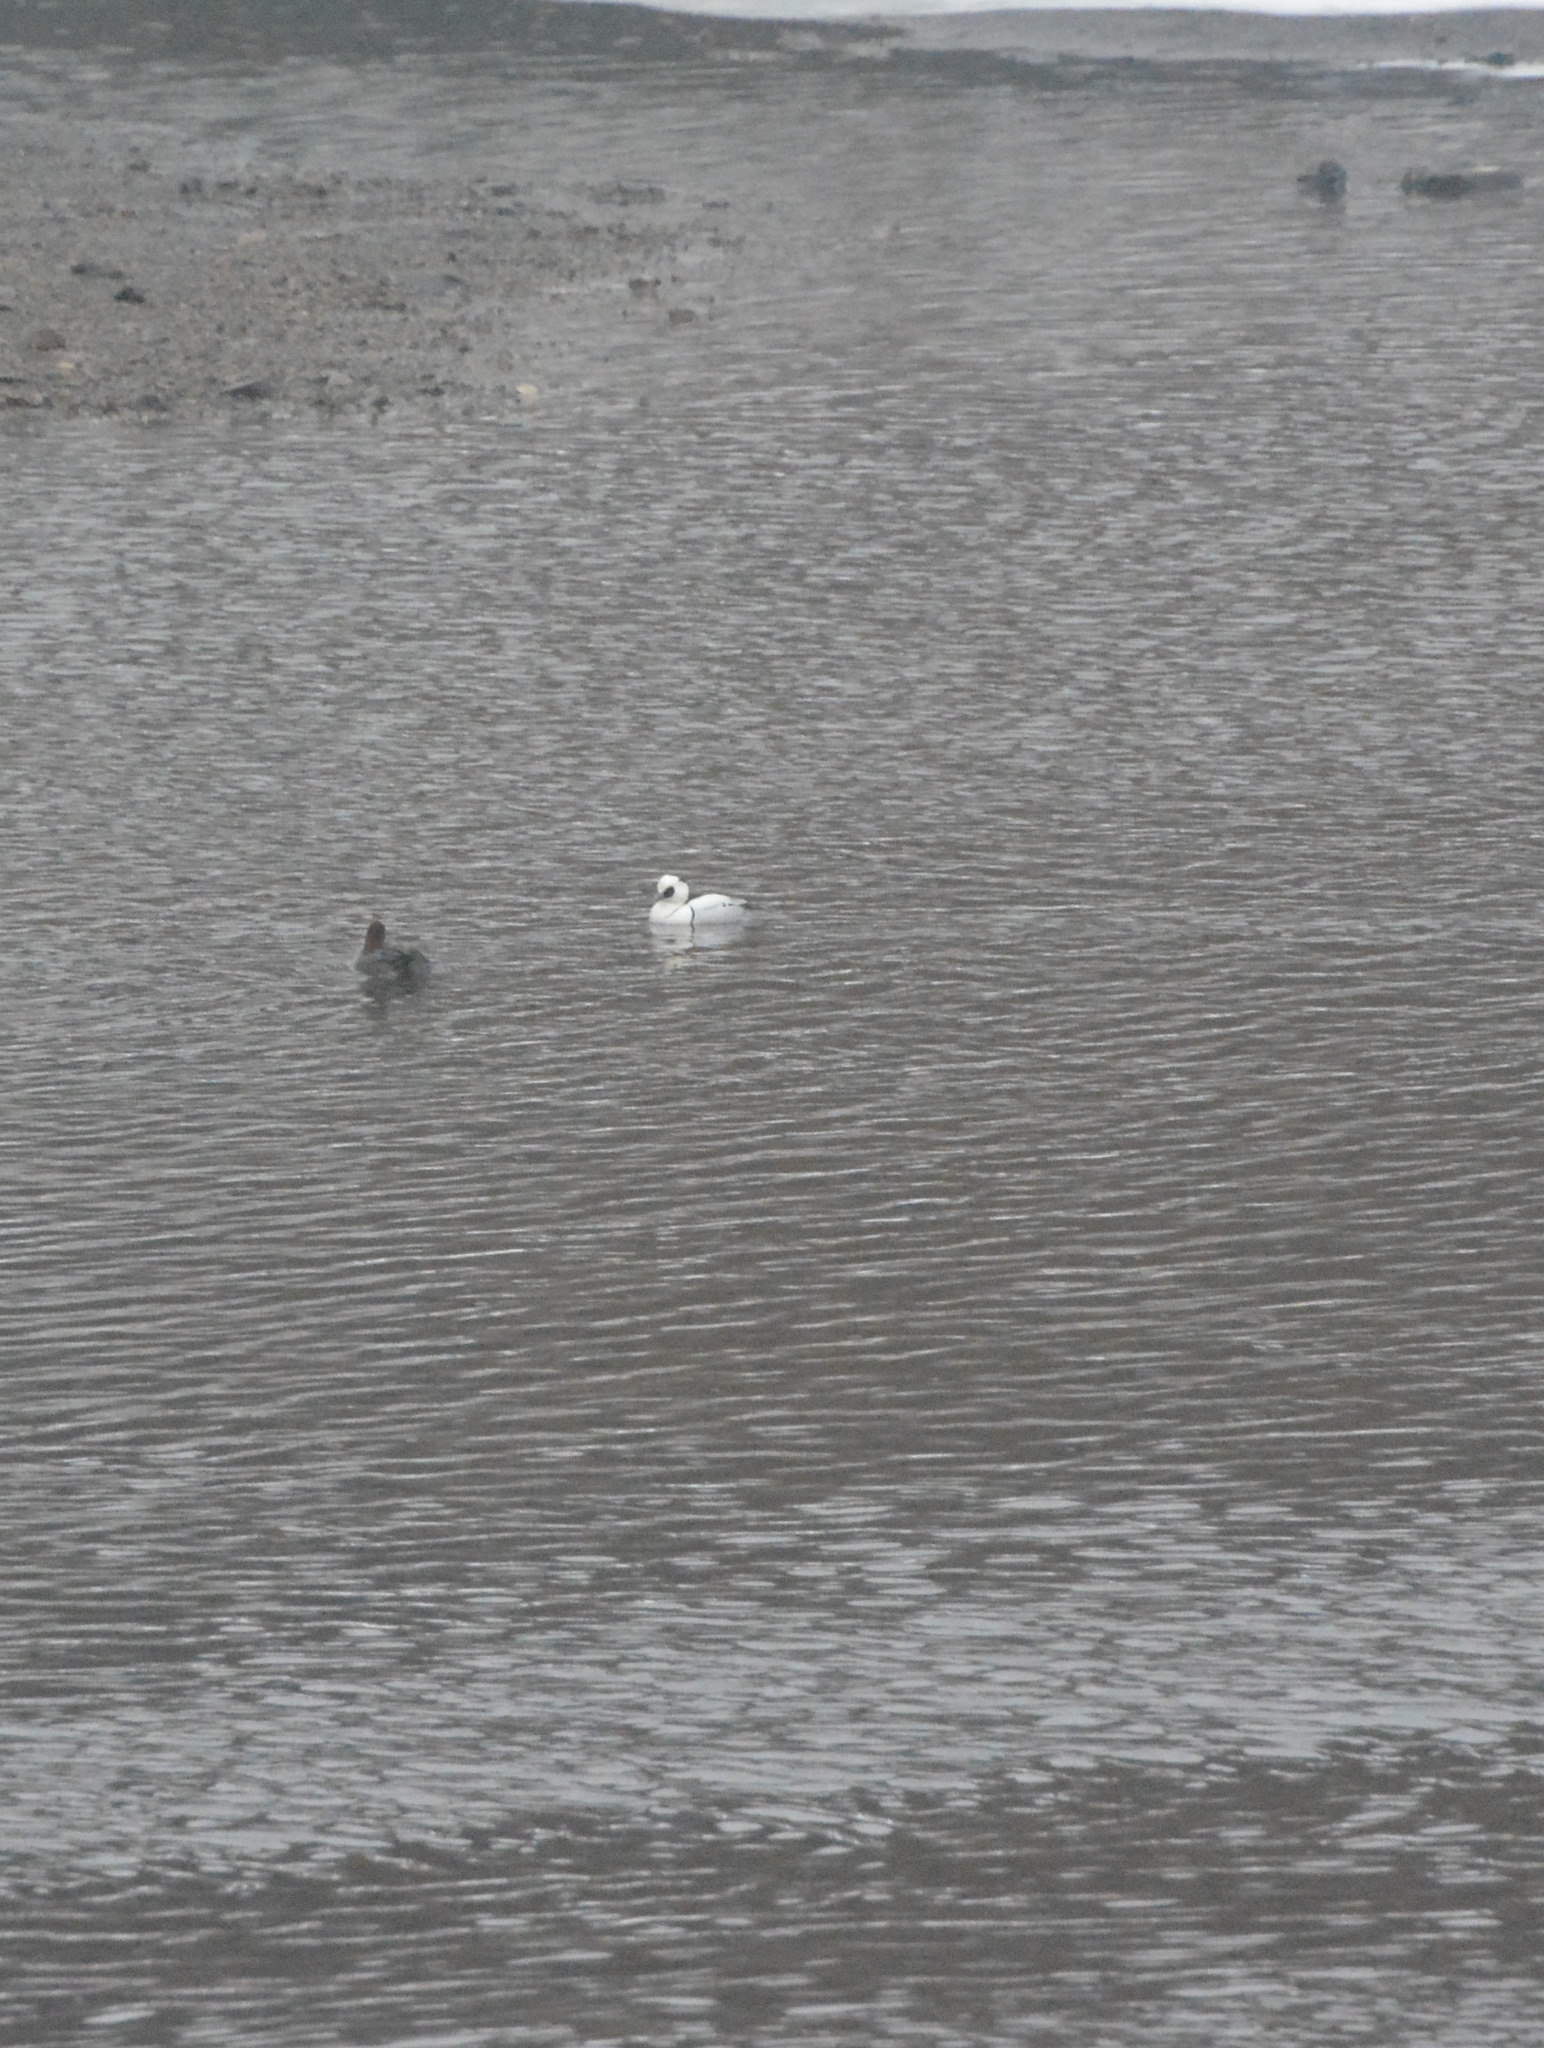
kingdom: Animalia
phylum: Chordata
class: Aves
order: Anseriformes
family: Anatidae
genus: Mergellus
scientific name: Mergellus albellus
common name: Smew
